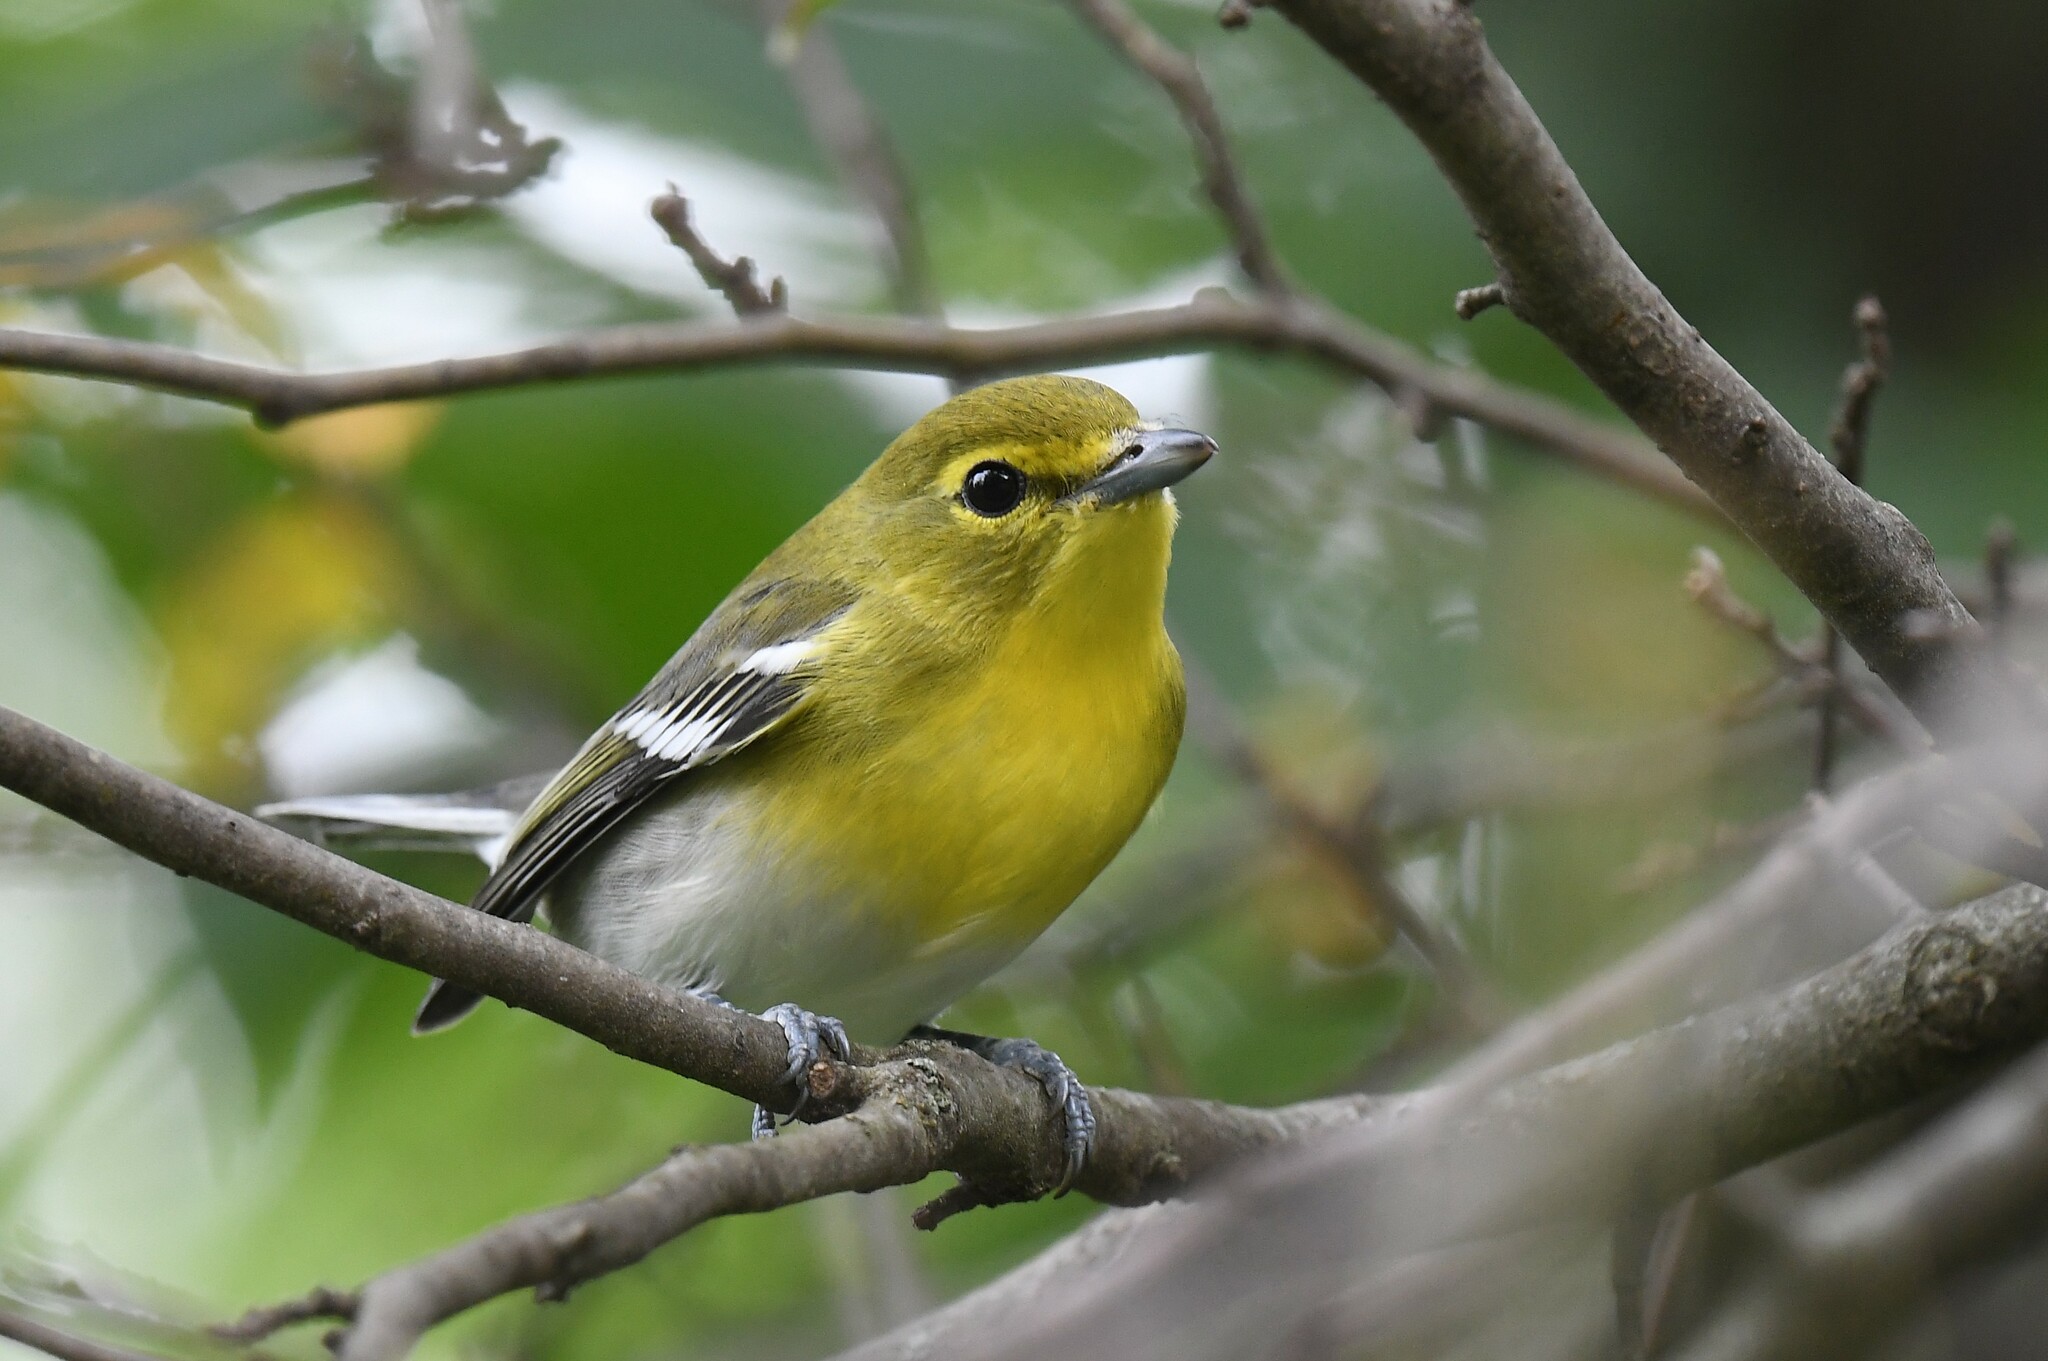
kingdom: Animalia
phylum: Chordata
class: Aves
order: Passeriformes
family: Vireonidae
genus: Vireo
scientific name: Vireo flavifrons
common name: Yellow-throated vireo
